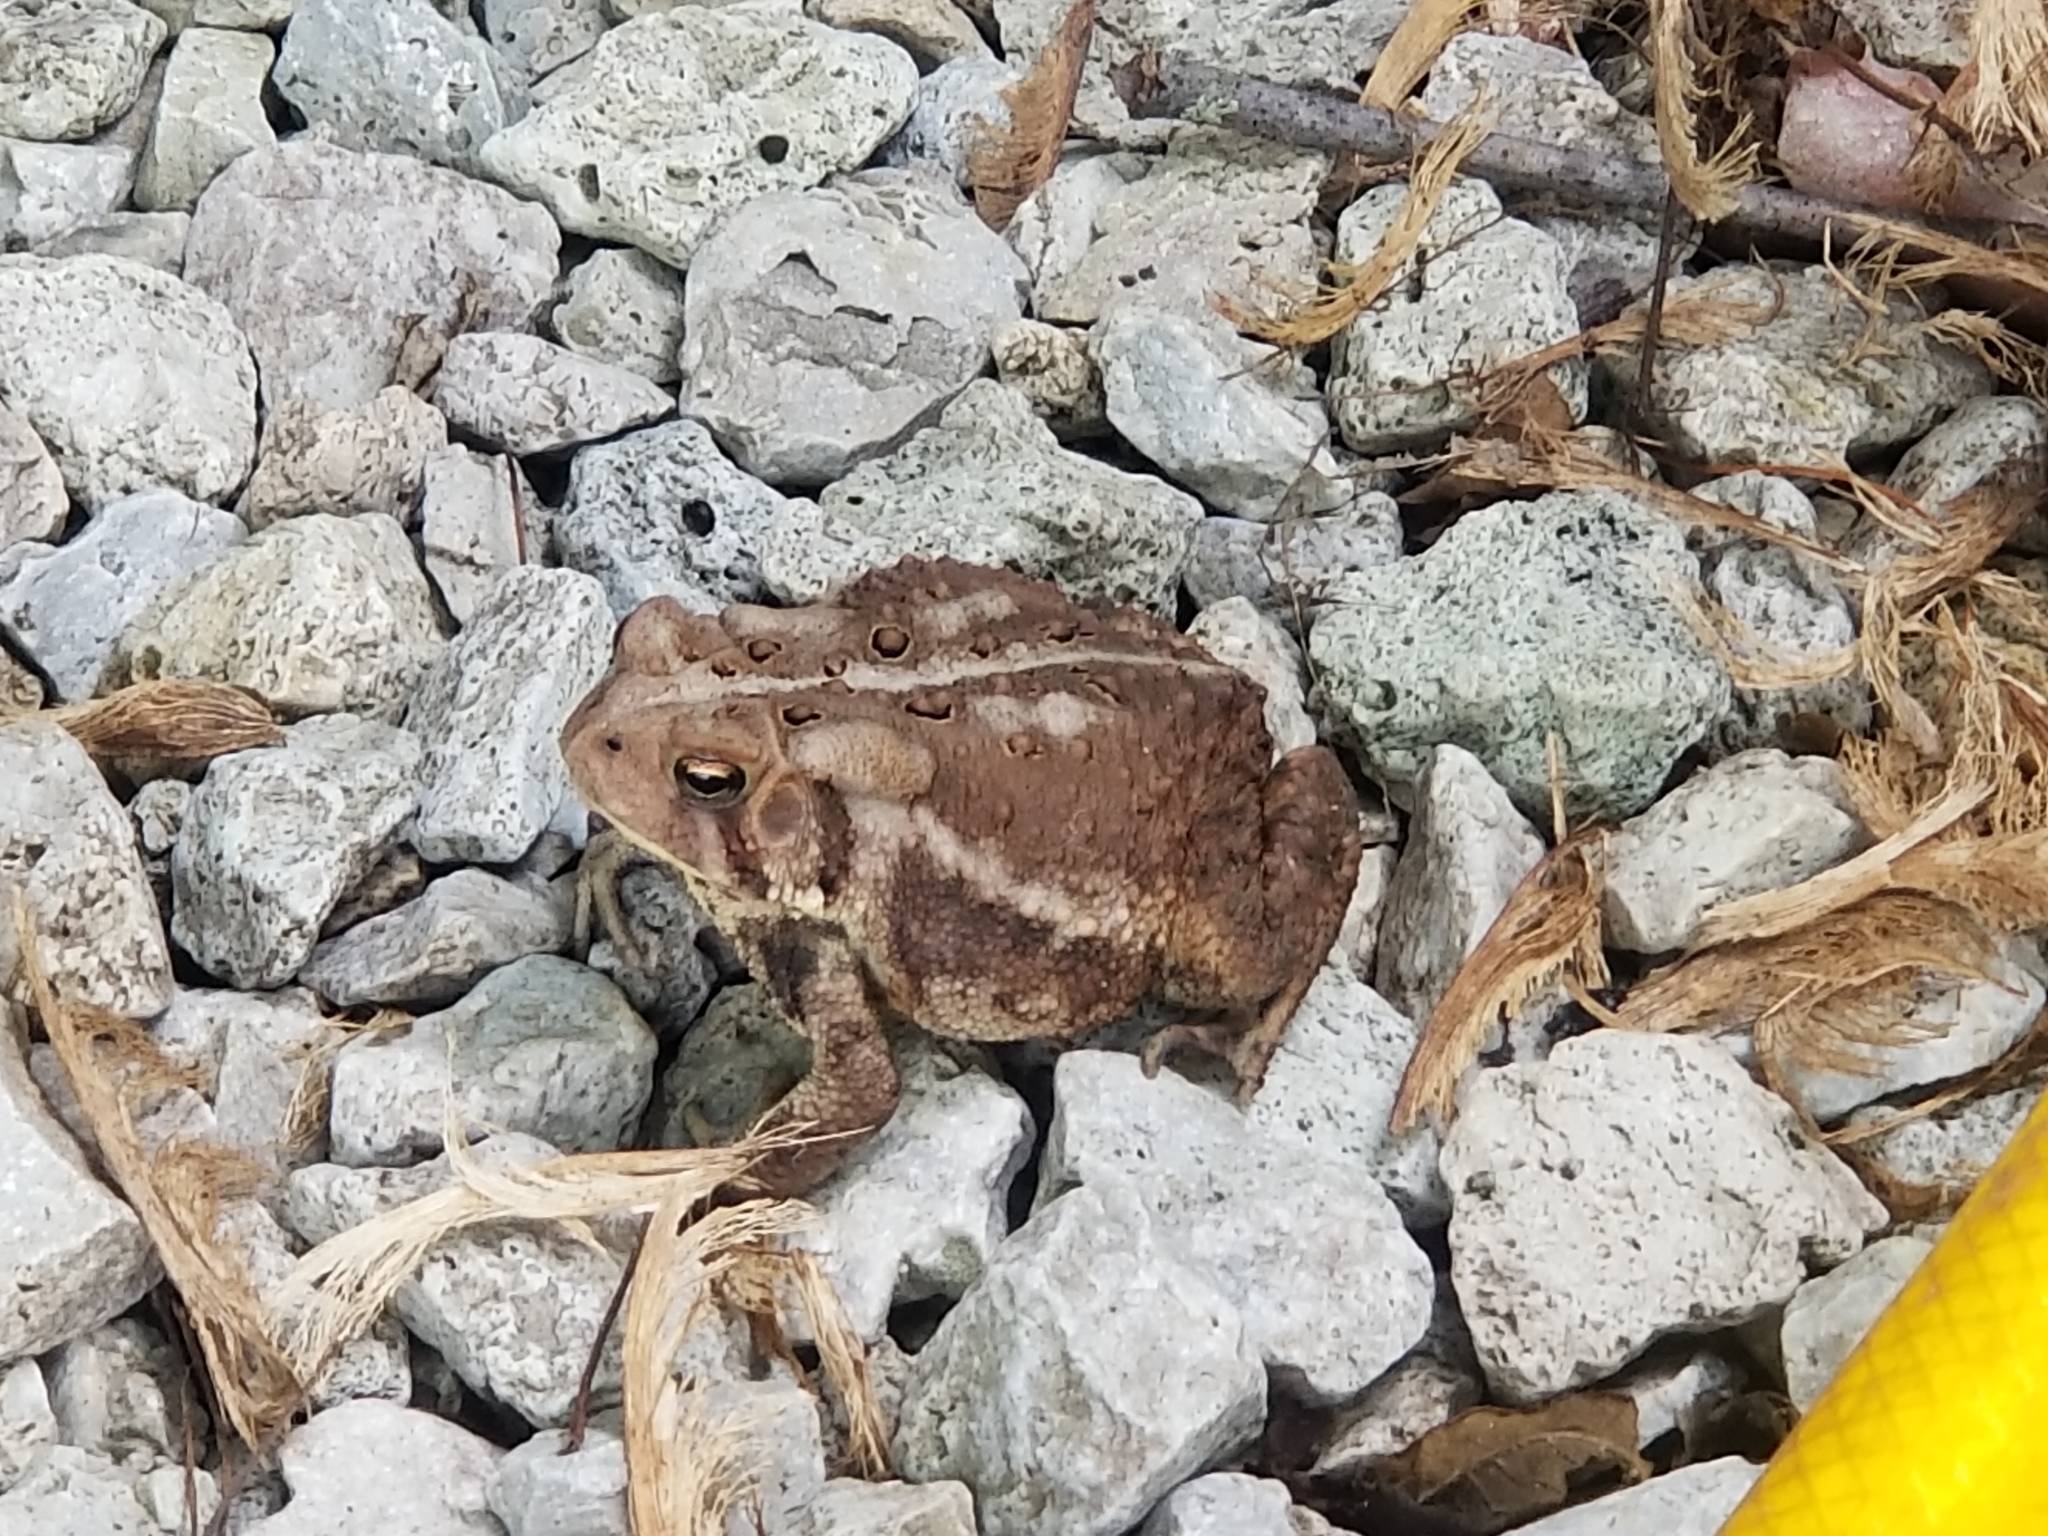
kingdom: Animalia
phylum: Chordata
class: Amphibia
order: Anura
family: Bufonidae
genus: Anaxyrus
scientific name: Anaxyrus americanus
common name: American toad
